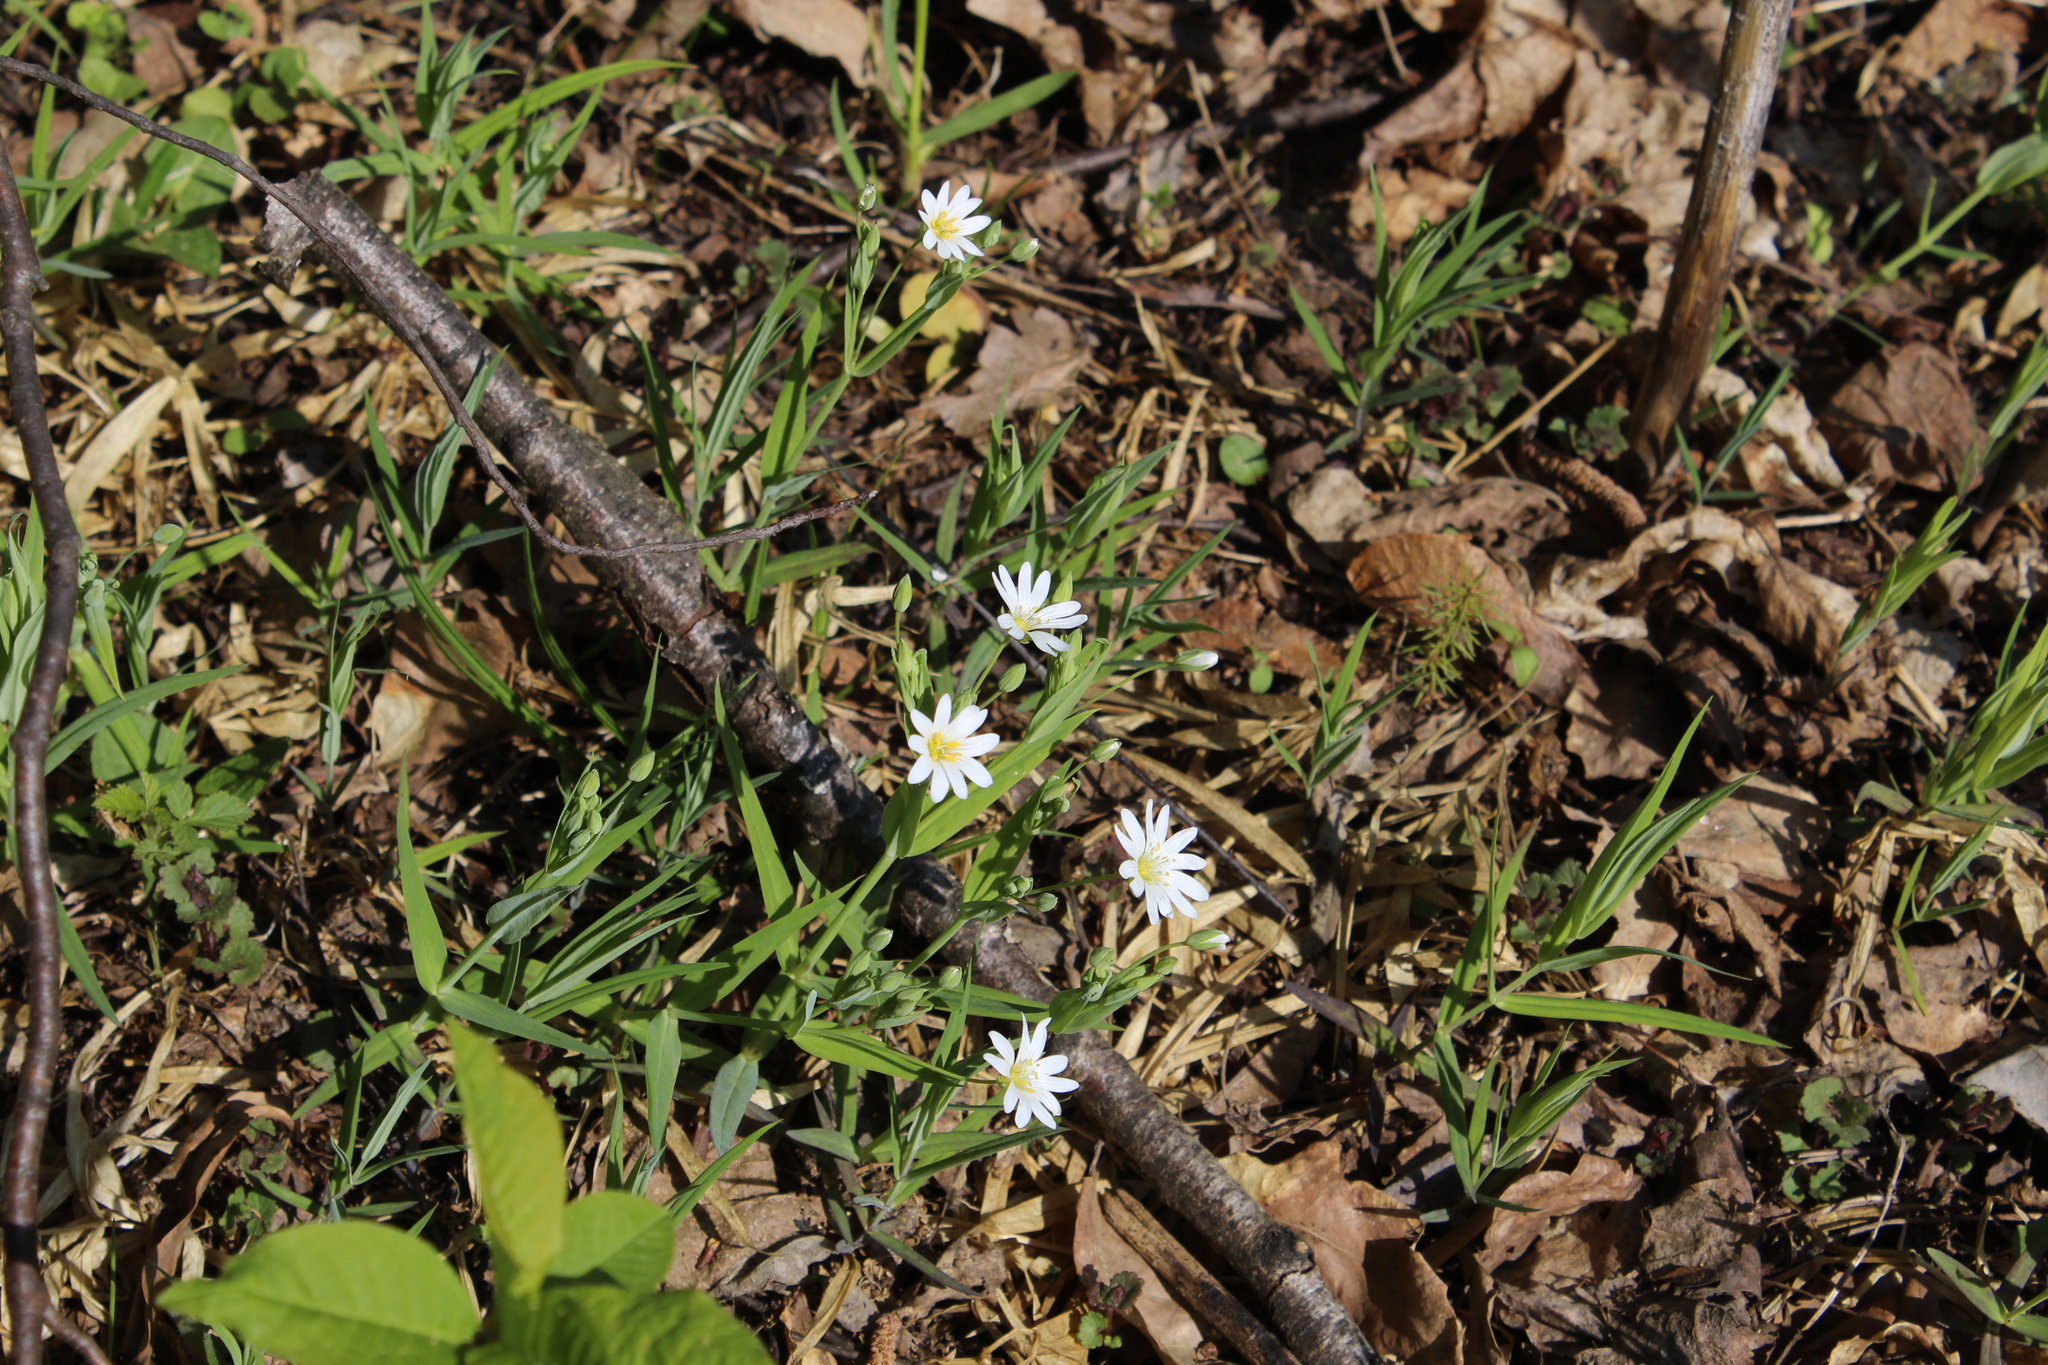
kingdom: Plantae
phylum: Tracheophyta
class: Magnoliopsida
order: Caryophyllales
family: Caryophyllaceae
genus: Rabelera
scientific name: Rabelera holostea
